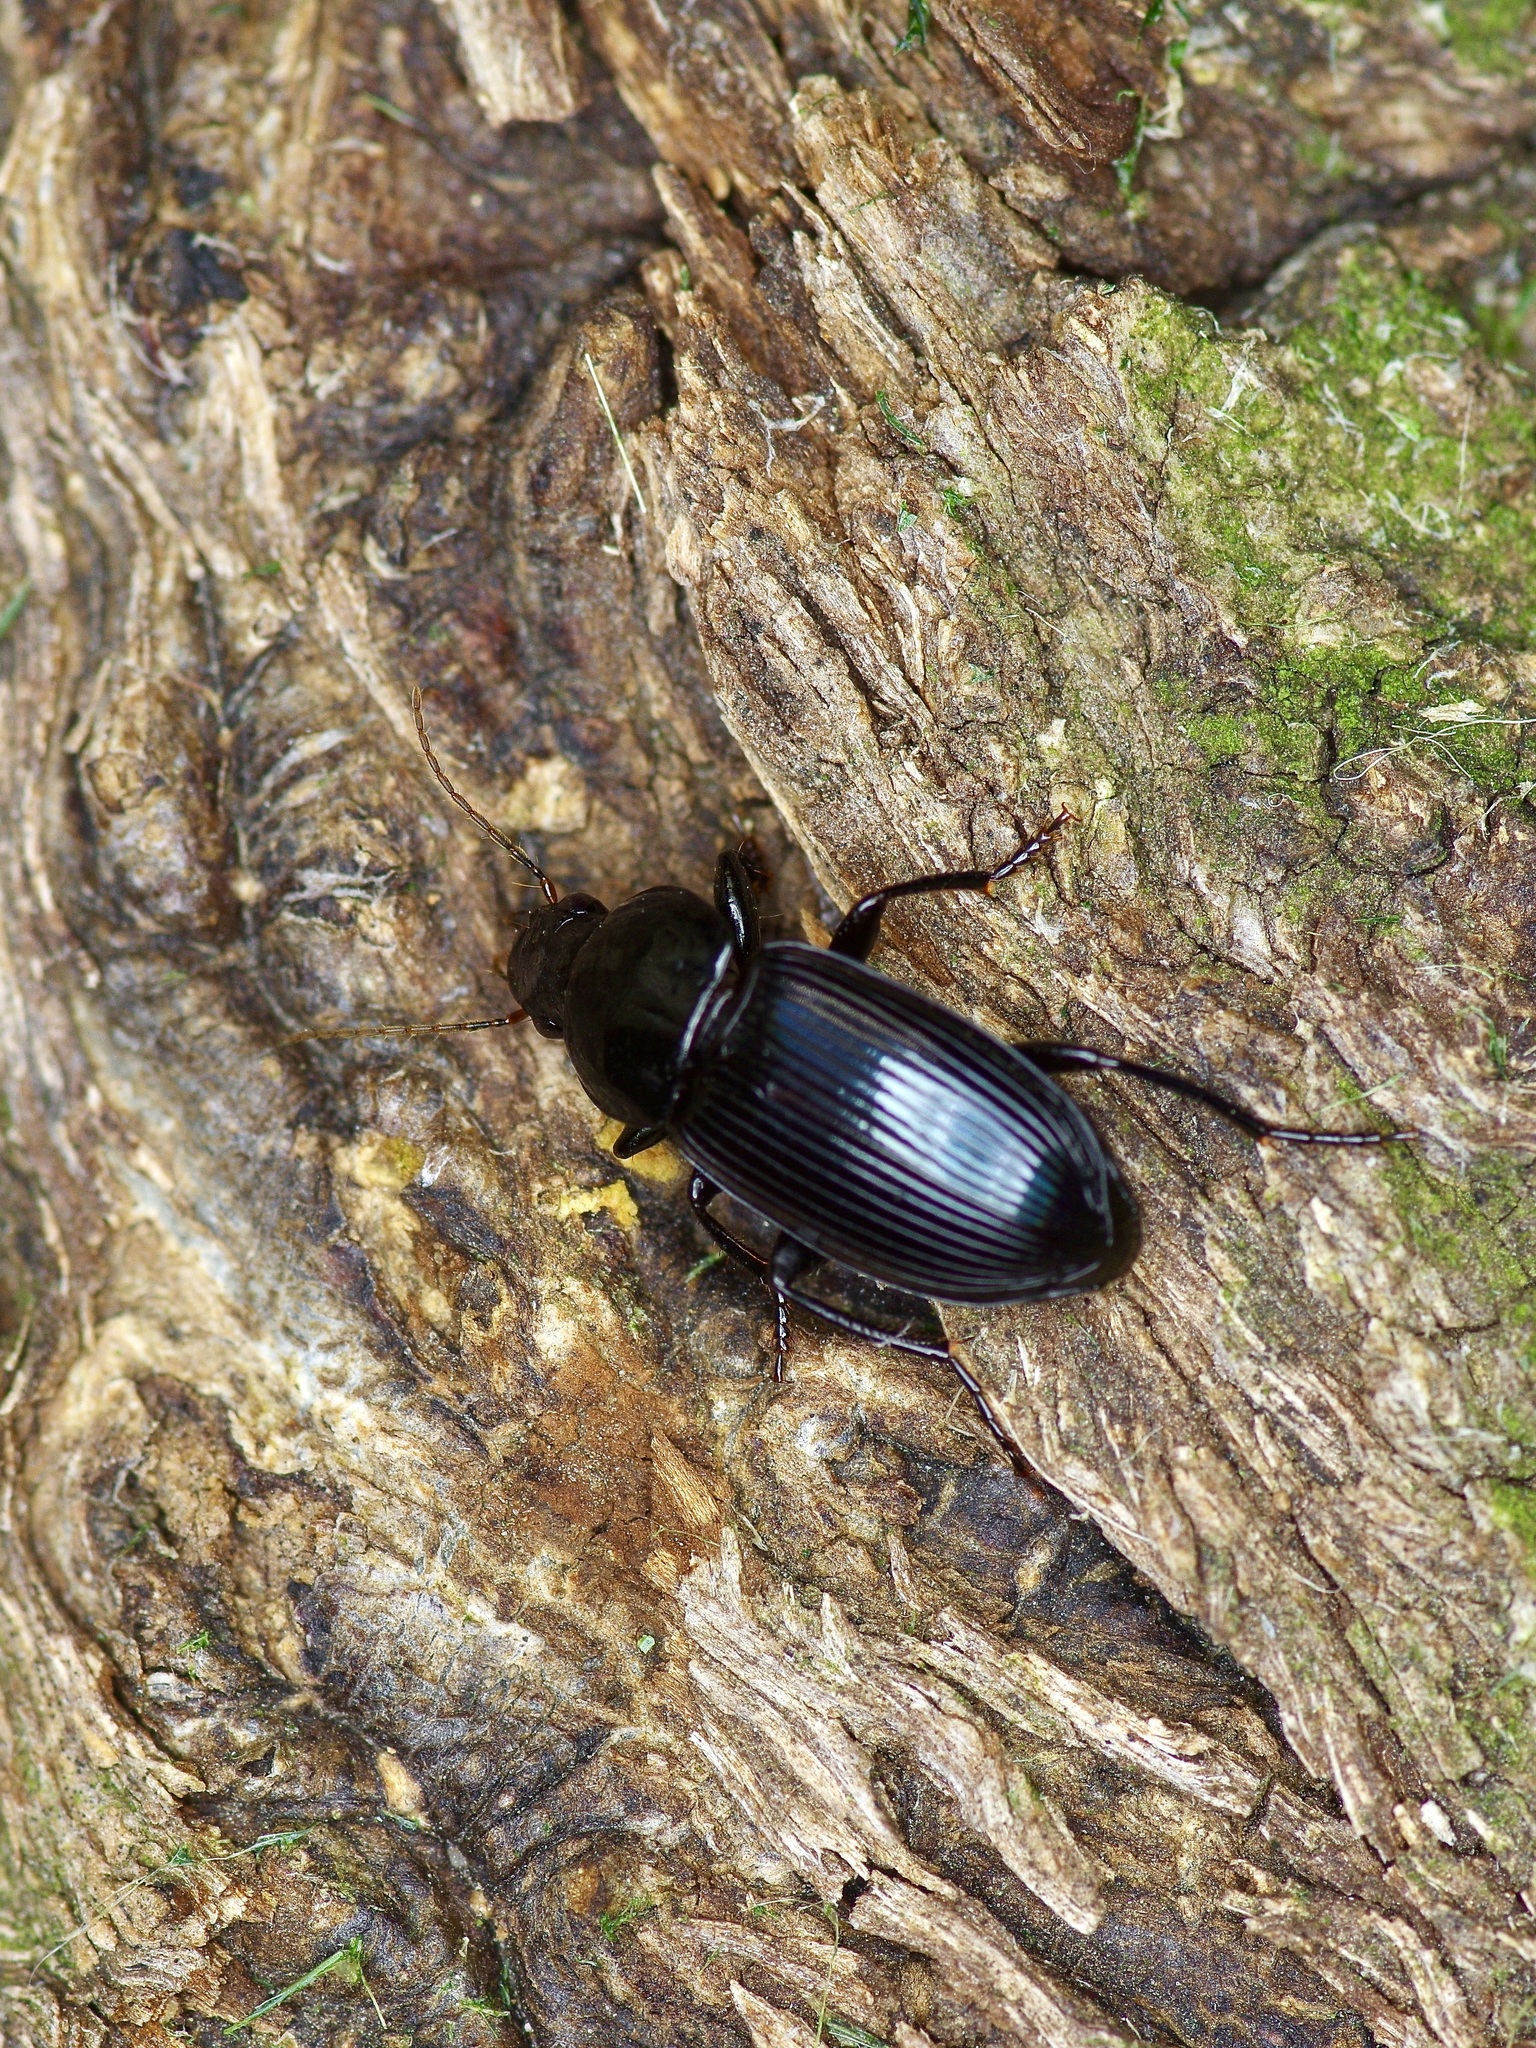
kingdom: Animalia
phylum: Arthropoda
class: Insecta
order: Coleoptera
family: Carabidae
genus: Aztecarpalus
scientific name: Aztecarpalus schaefferi
